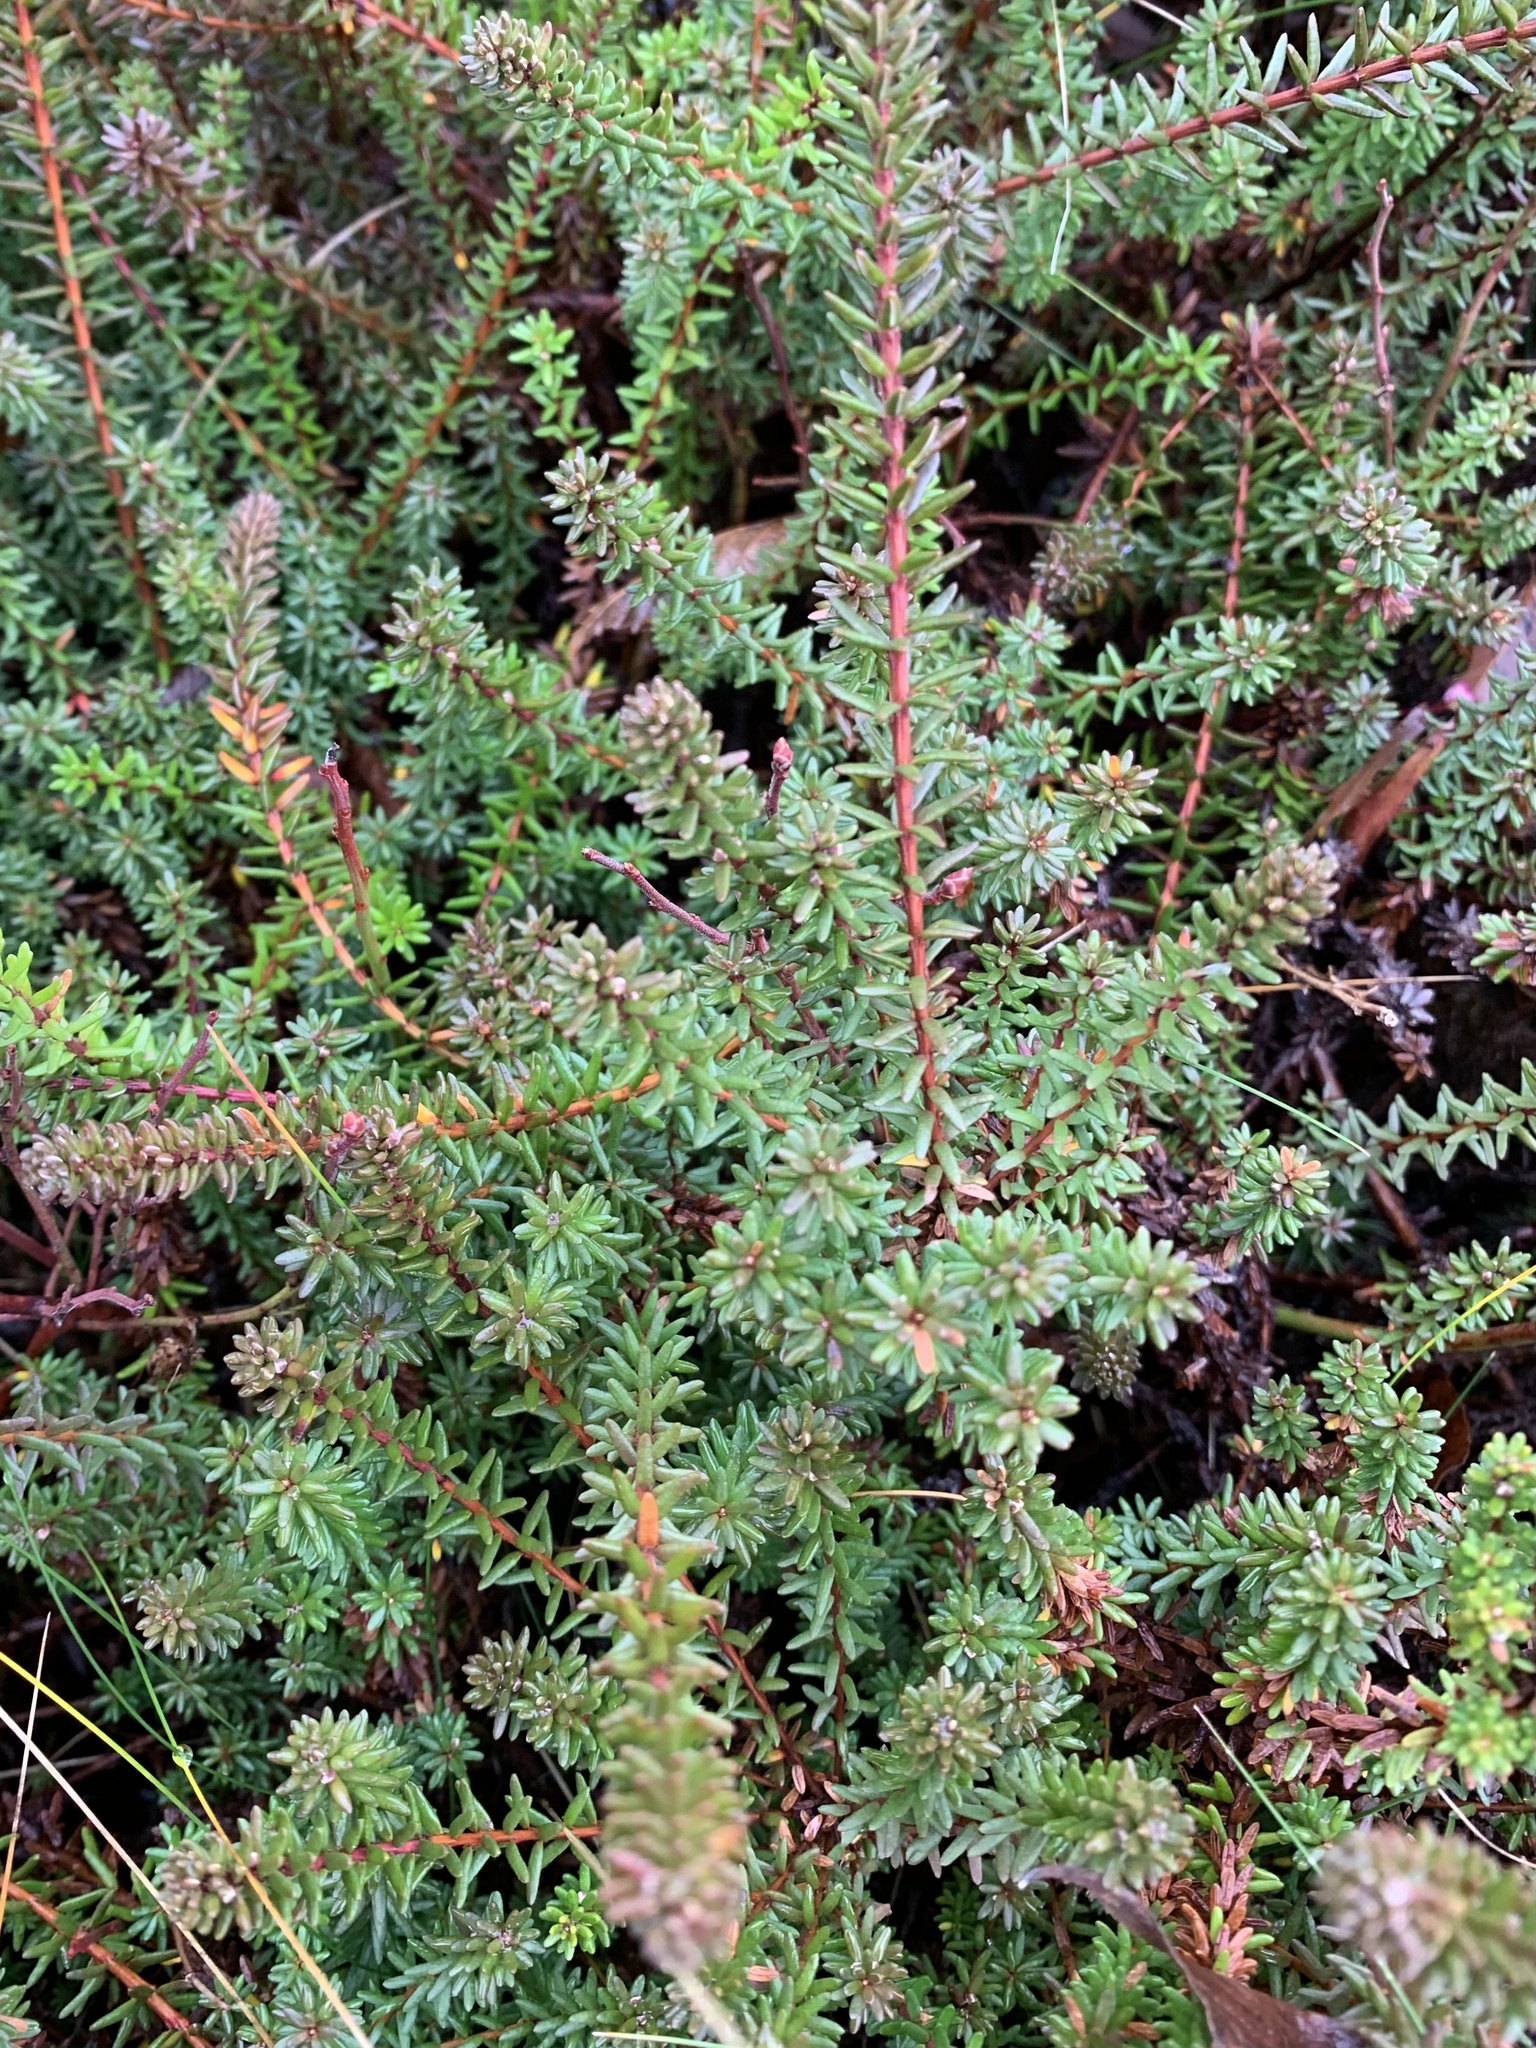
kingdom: Plantae
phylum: Tracheophyta
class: Magnoliopsida
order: Ericales
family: Ericaceae
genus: Empetrum
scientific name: Empetrum nigrum
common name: Black crowberry
